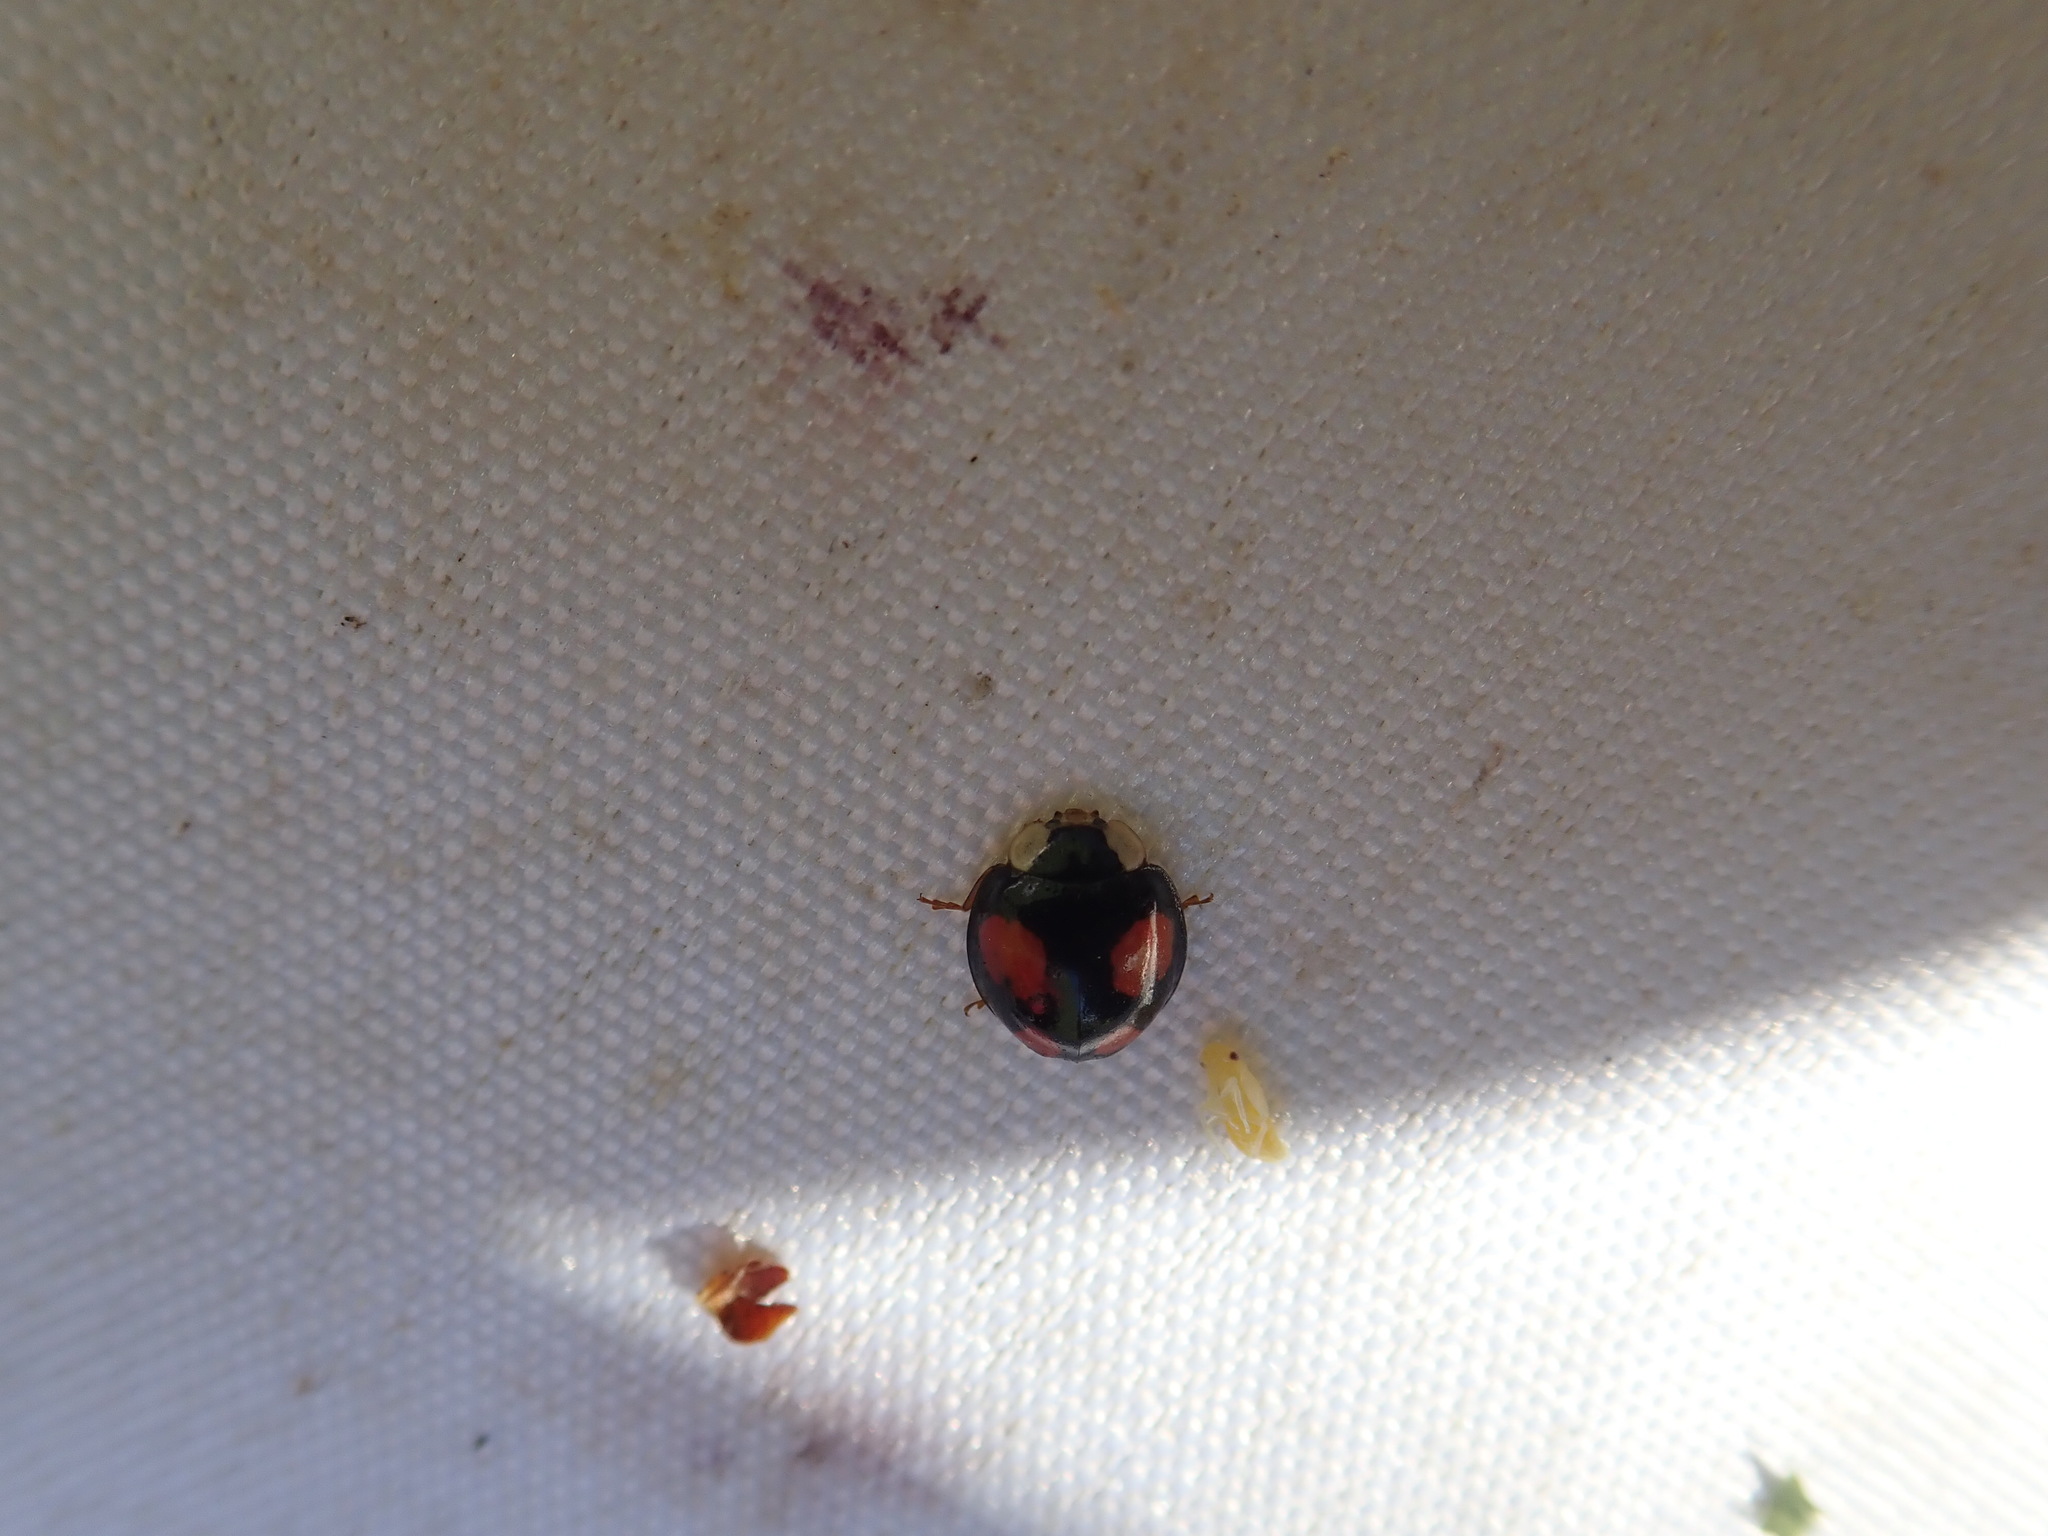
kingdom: Animalia
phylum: Arthropoda
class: Insecta
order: Coleoptera
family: Coccinellidae
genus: Harmonia
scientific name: Harmonia axyridis
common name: Harlequin ladybird
